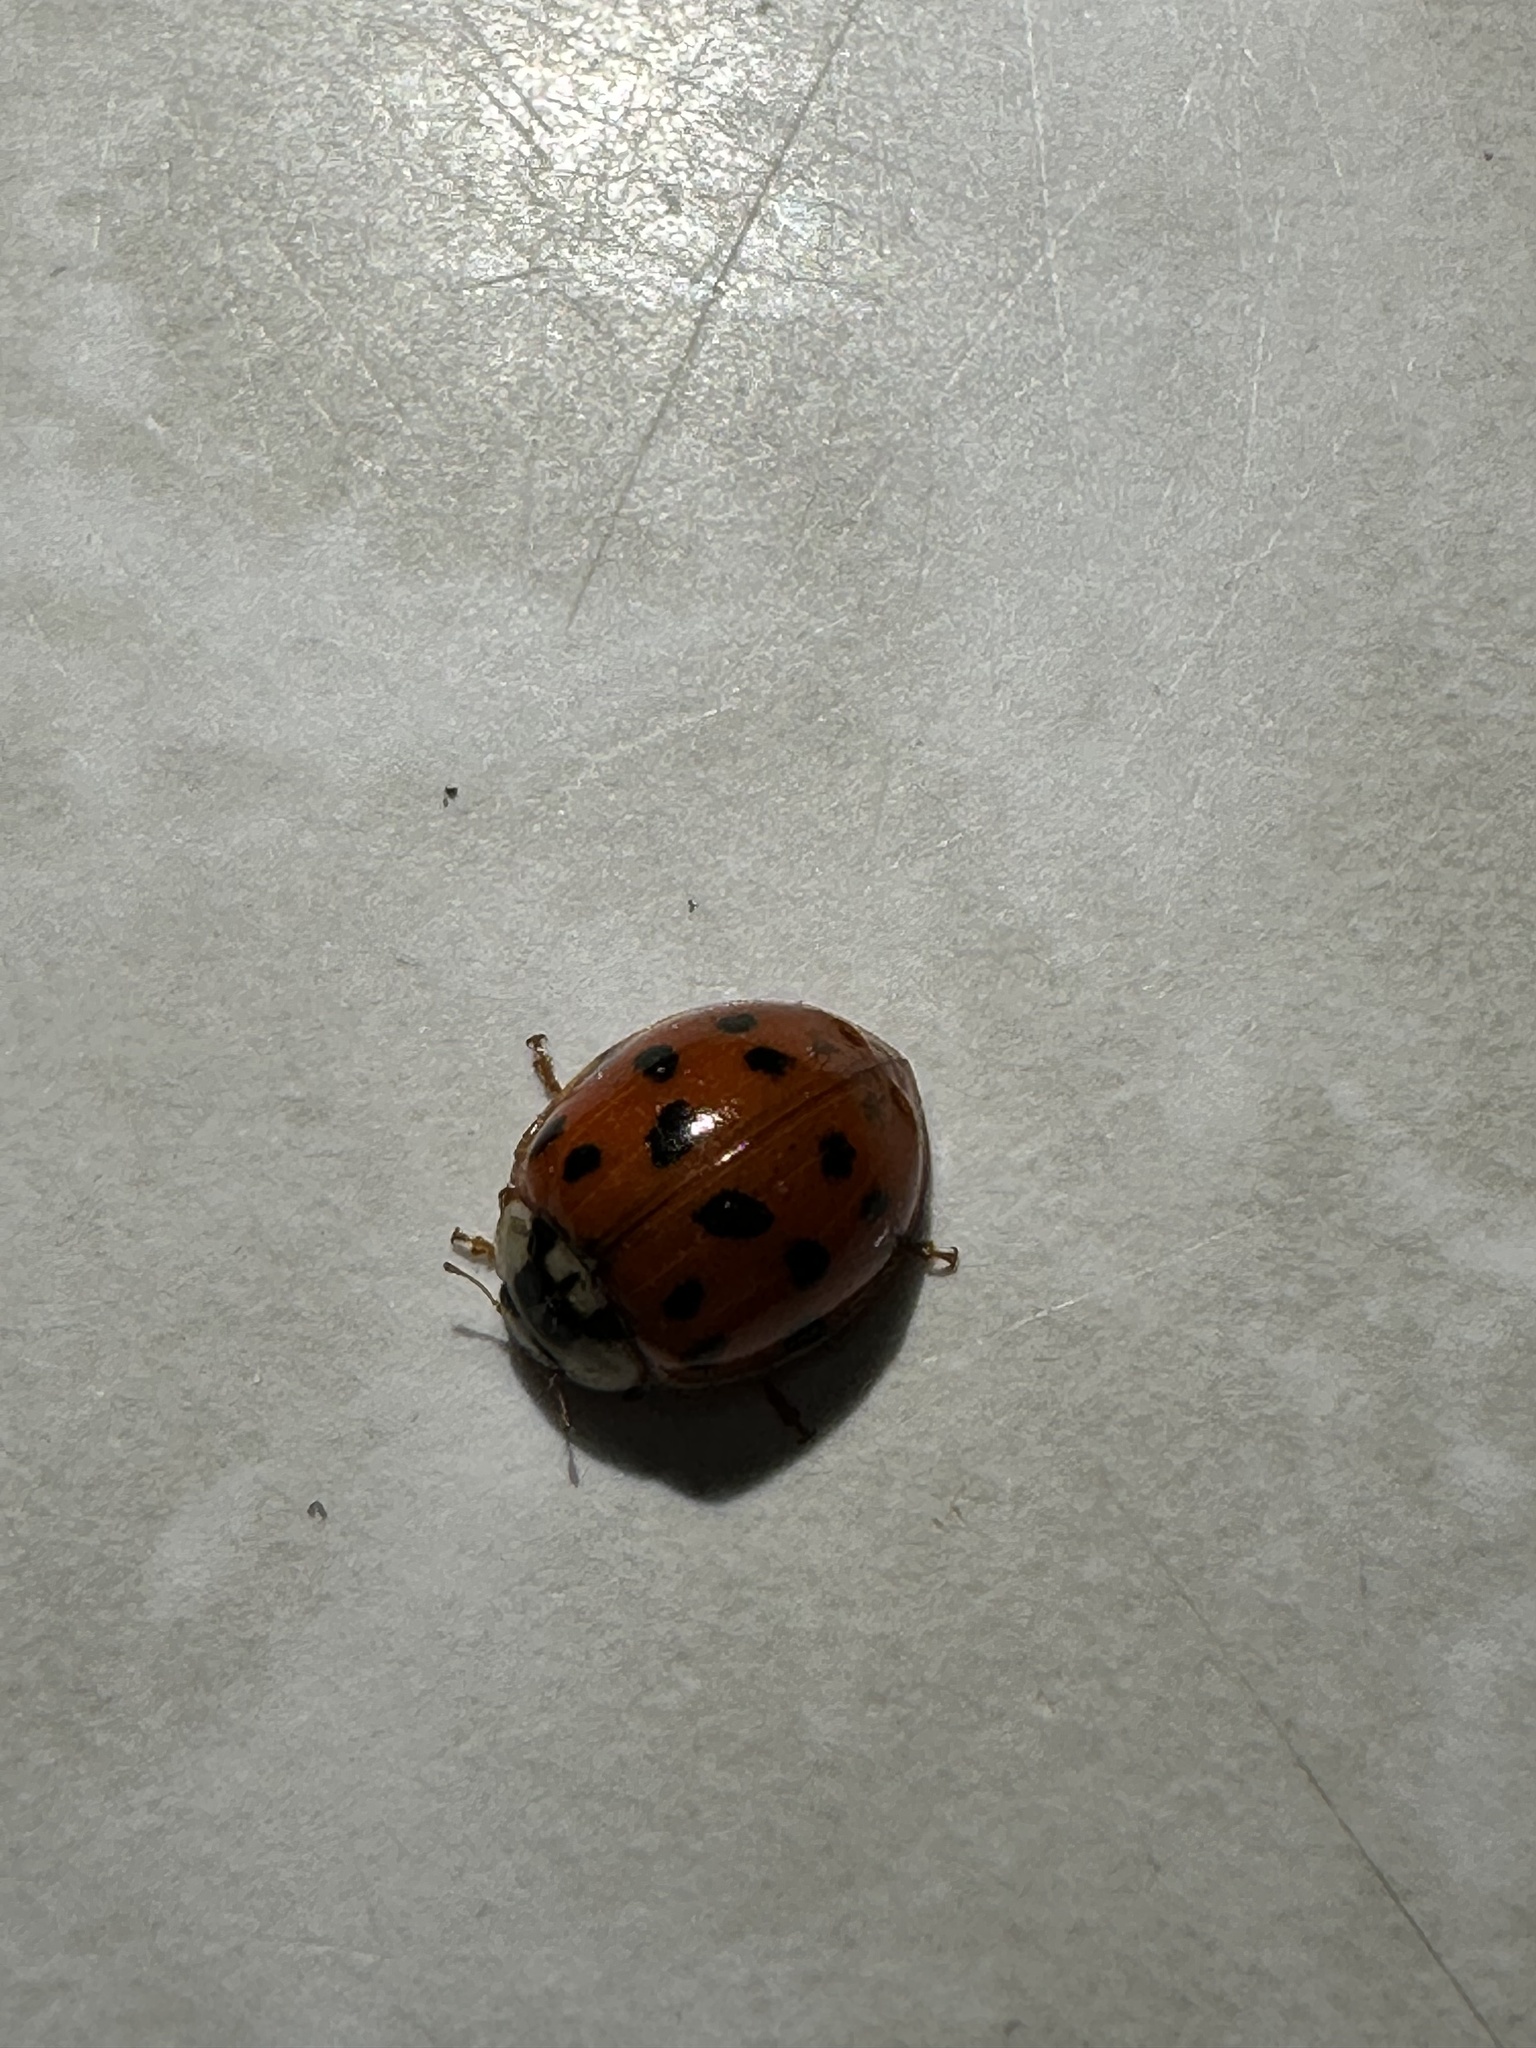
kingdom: Animalia
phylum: Arthropoda
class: Insecta
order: Coleoptera
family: Coccinellidae
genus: Harmonia
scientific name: Harmonia axyridis
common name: Harlequin ladybird
